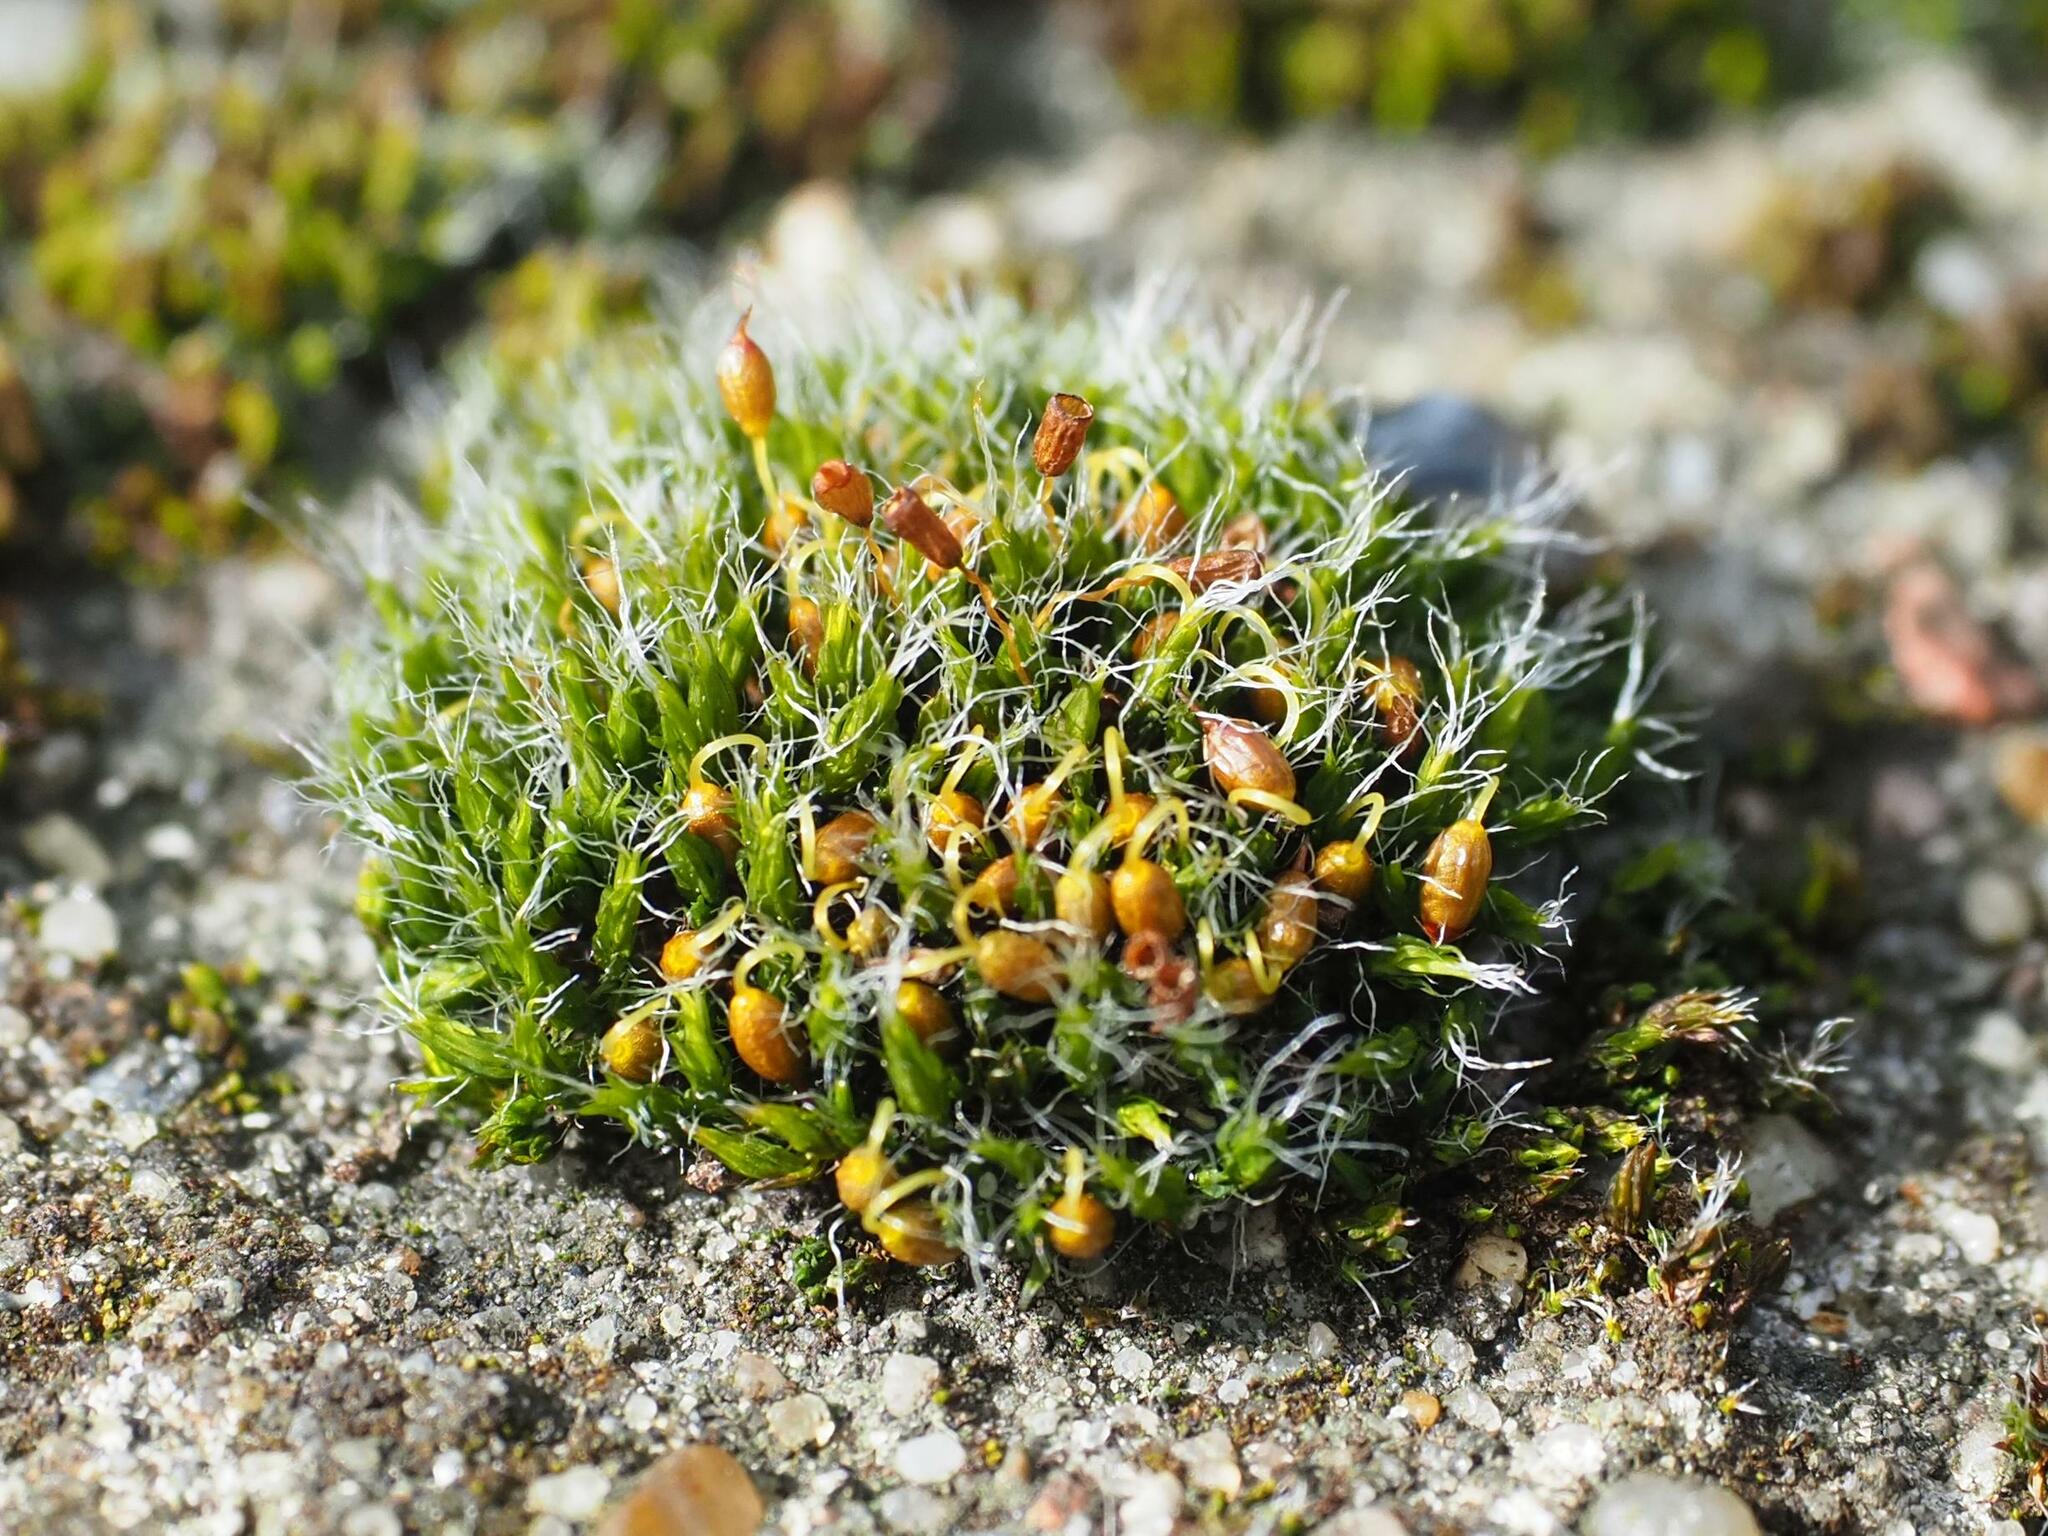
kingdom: Plantae
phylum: Bryophyta
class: Bryopsida
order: Grimmiales
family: Grimmiaceae
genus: Grimmia
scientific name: Grimmia pulvinata
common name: Grey-cushioned grimmia
